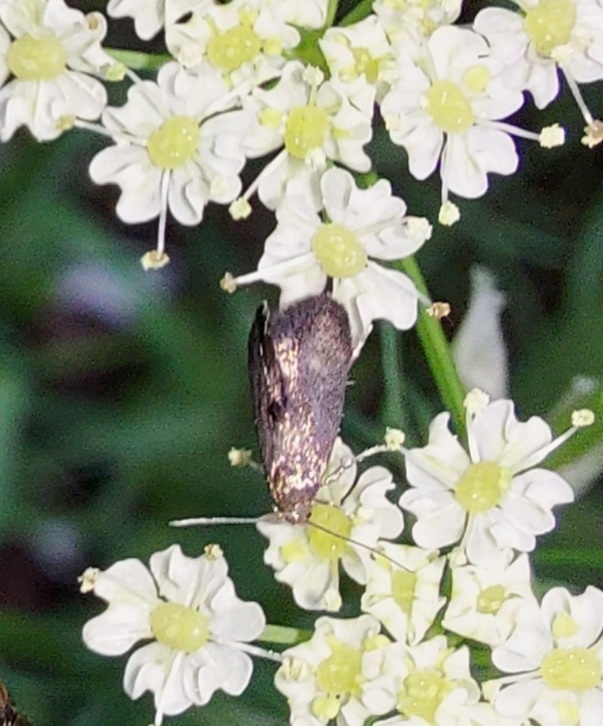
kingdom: Animalia
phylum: Arthropoda
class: Insecta
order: Lepidoptera
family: Epermeniidae
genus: Phaulernis
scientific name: Phaulernis dentella
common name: Scale-tooth lance-wing
